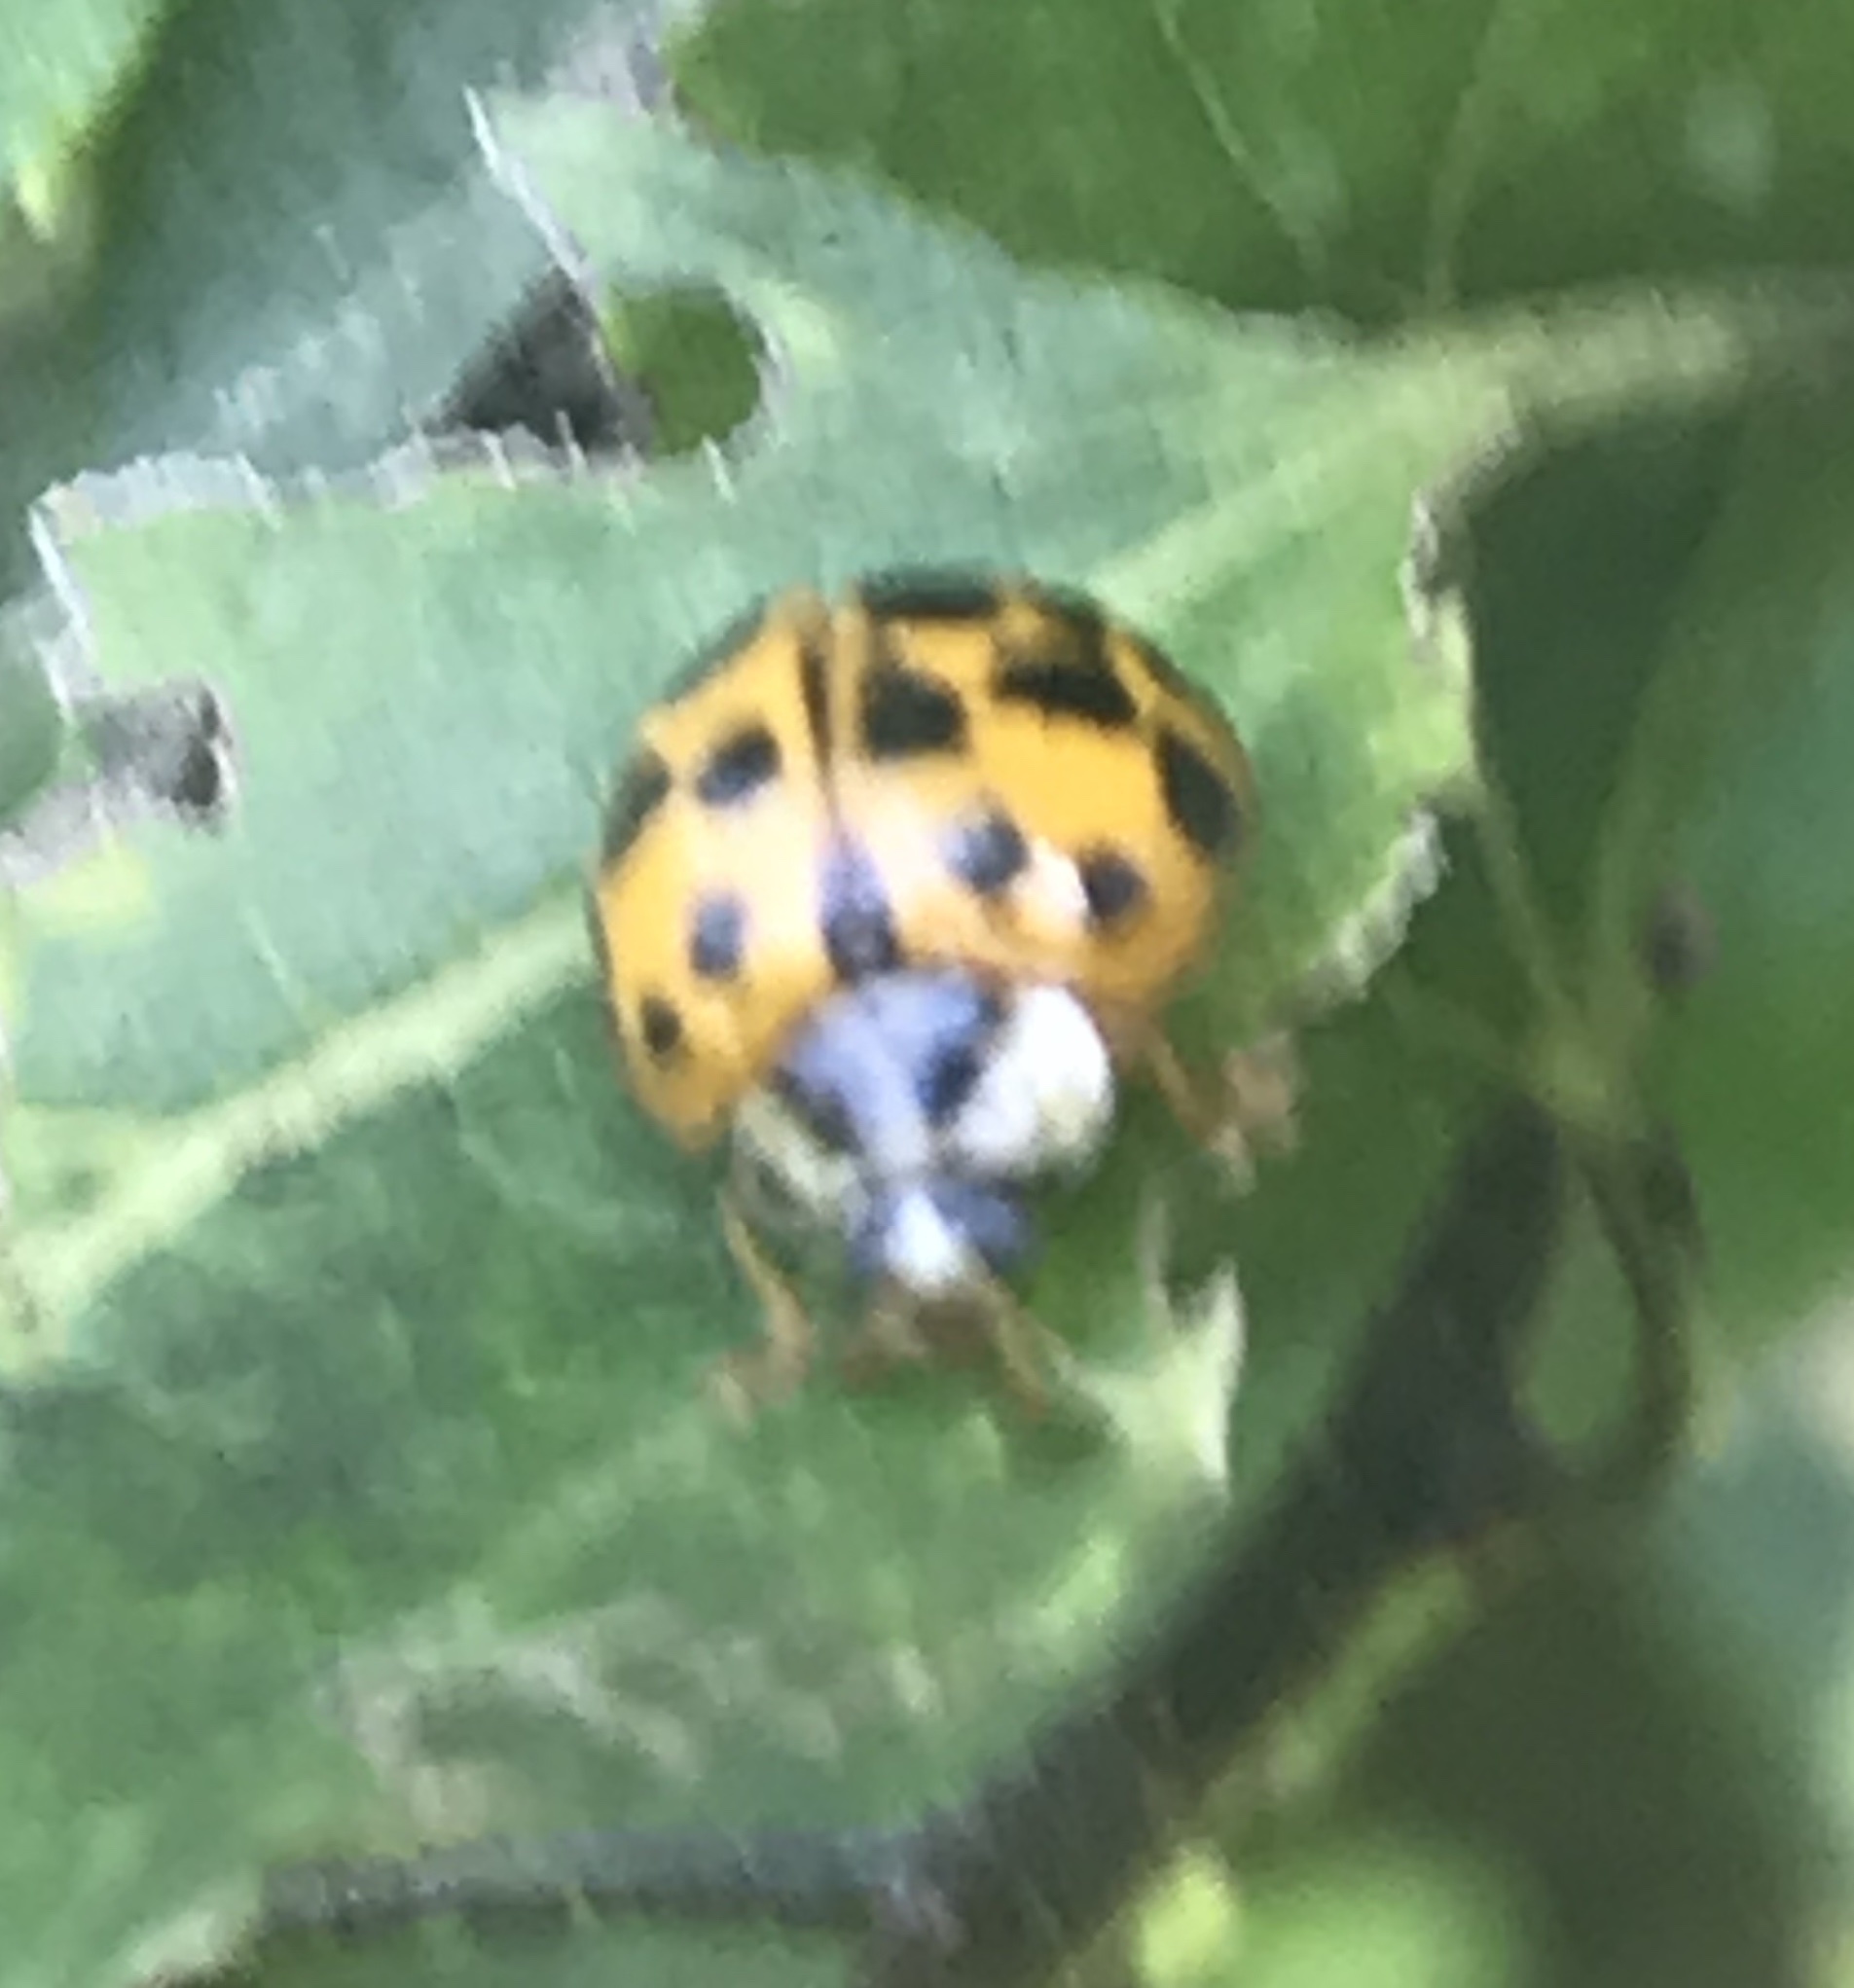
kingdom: Animalia
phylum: Arthropoda
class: Insecta
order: Coleoptera
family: Coccinellidae
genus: Harmonia
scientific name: Harmonia axyridis
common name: Harlequin ladybird
